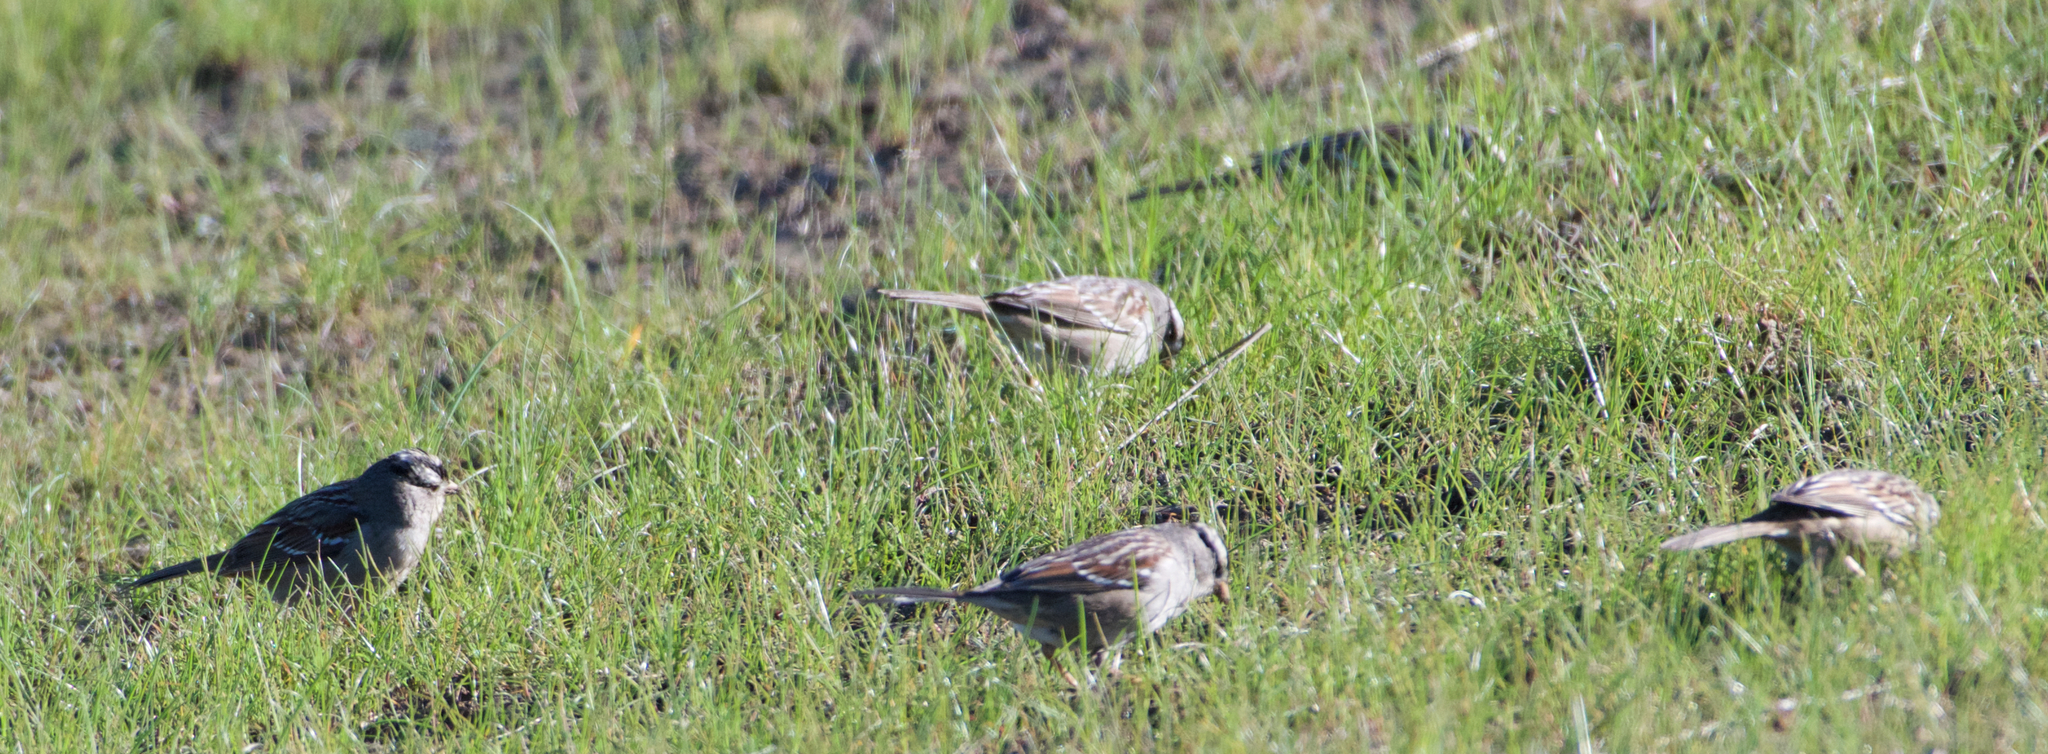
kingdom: Animalia
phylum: Chordata
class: Aves
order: Passeriformes
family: Passerellidae
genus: Zonotrichia
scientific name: Zonotrichia leucophrys
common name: White-crowned sparrow
